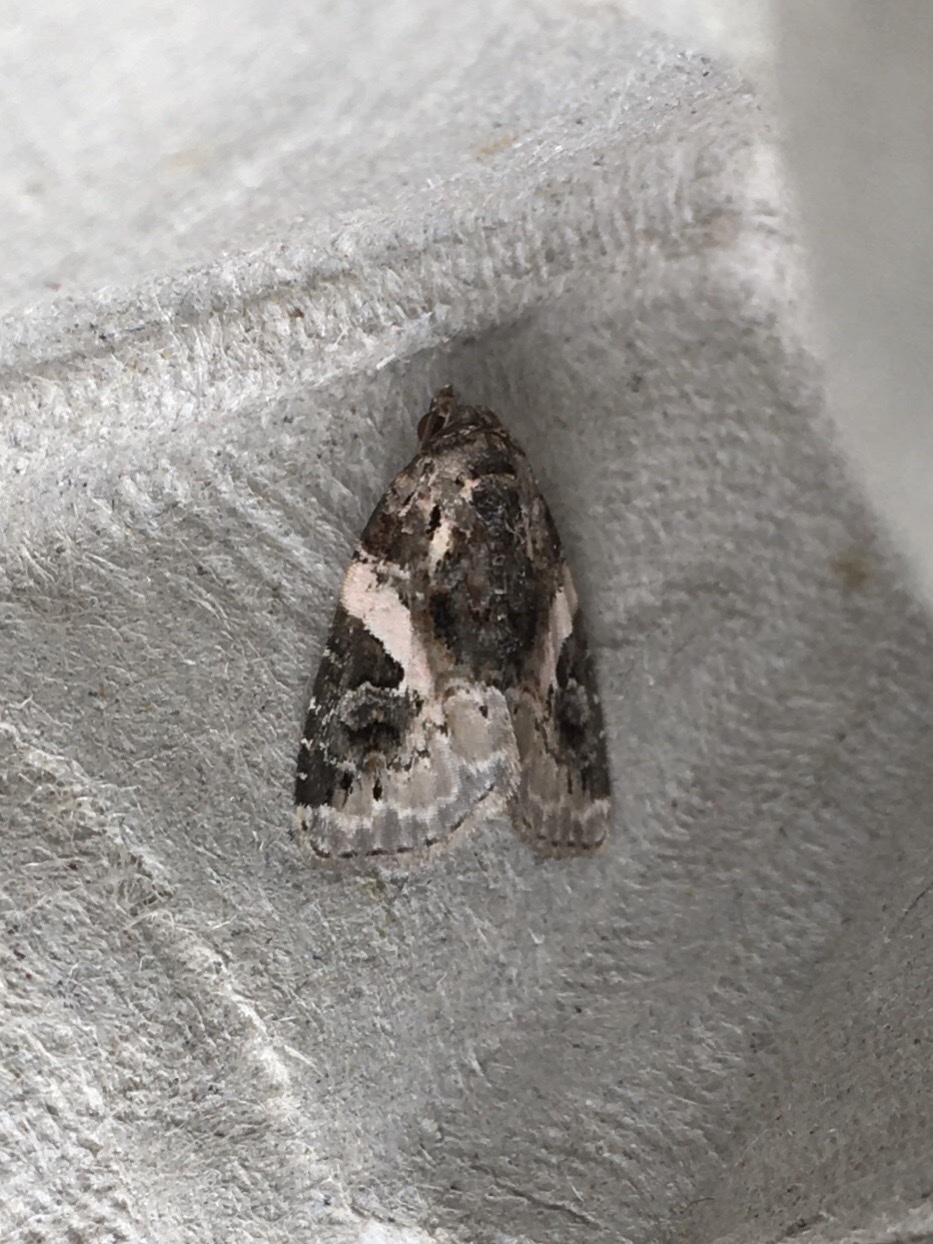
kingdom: Animalia
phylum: Arthropoda
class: Insecta
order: Lepidoptera
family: Noctuidae
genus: Pseudeustrotia
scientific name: Pseudeustrotia carneola
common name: Pink-barred lithacodia moth
